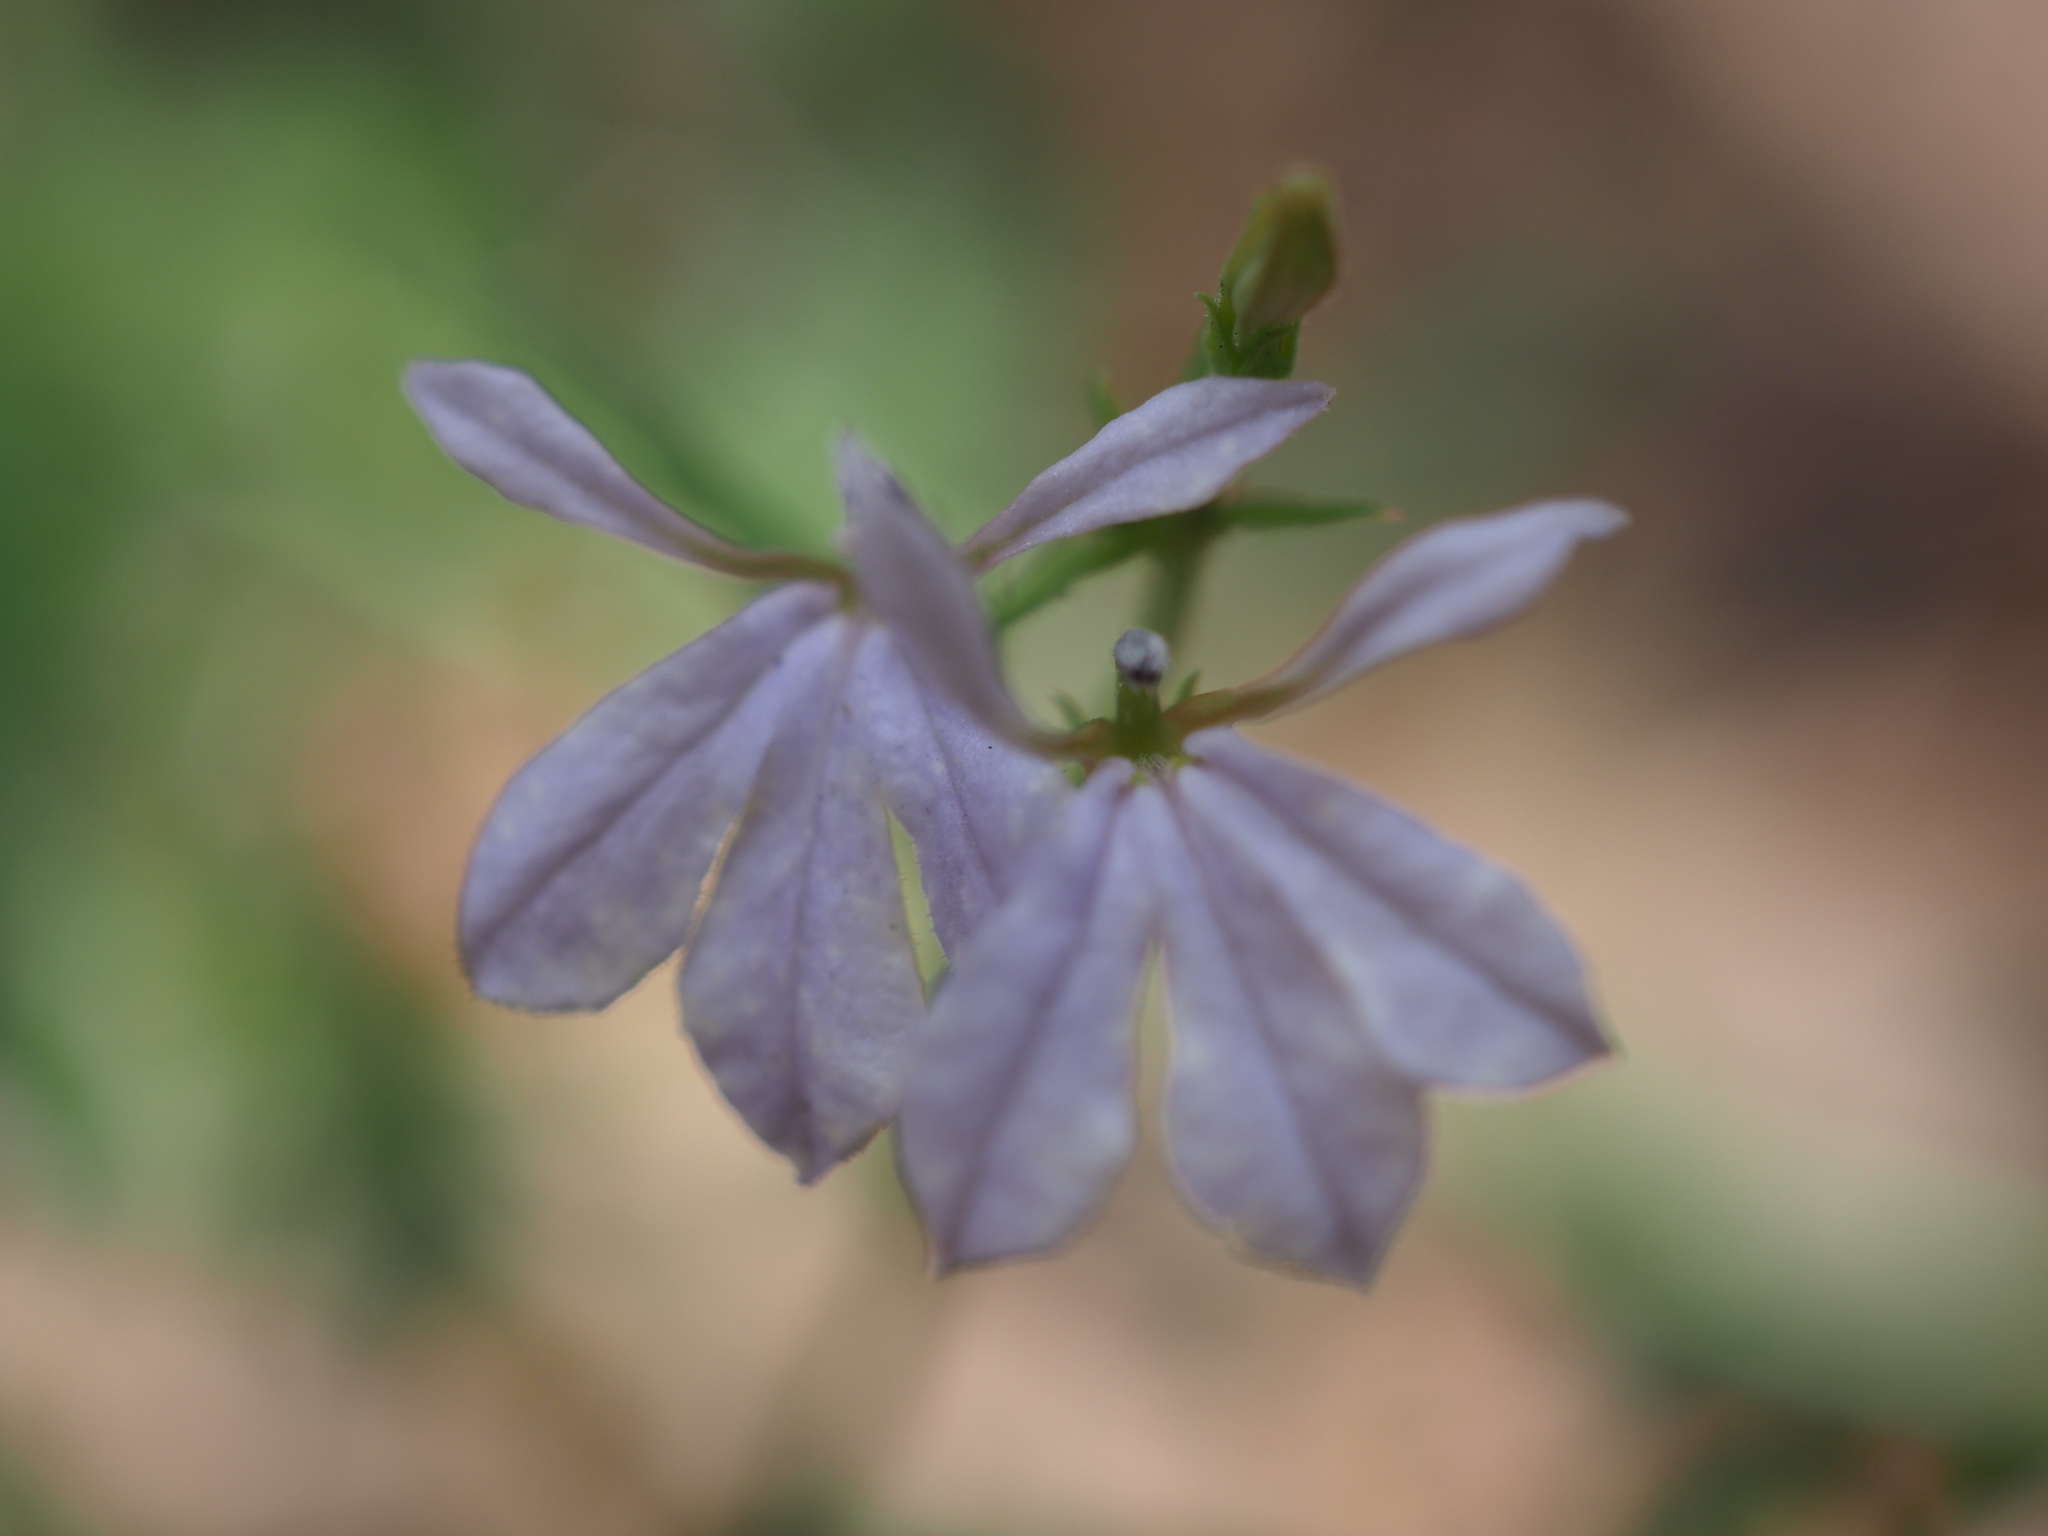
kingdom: Plantae
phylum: Tracheophyta
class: Magnoliopsida
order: Asterales
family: Campanulaceae
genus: Lobelia
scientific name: Lobelia anceps
